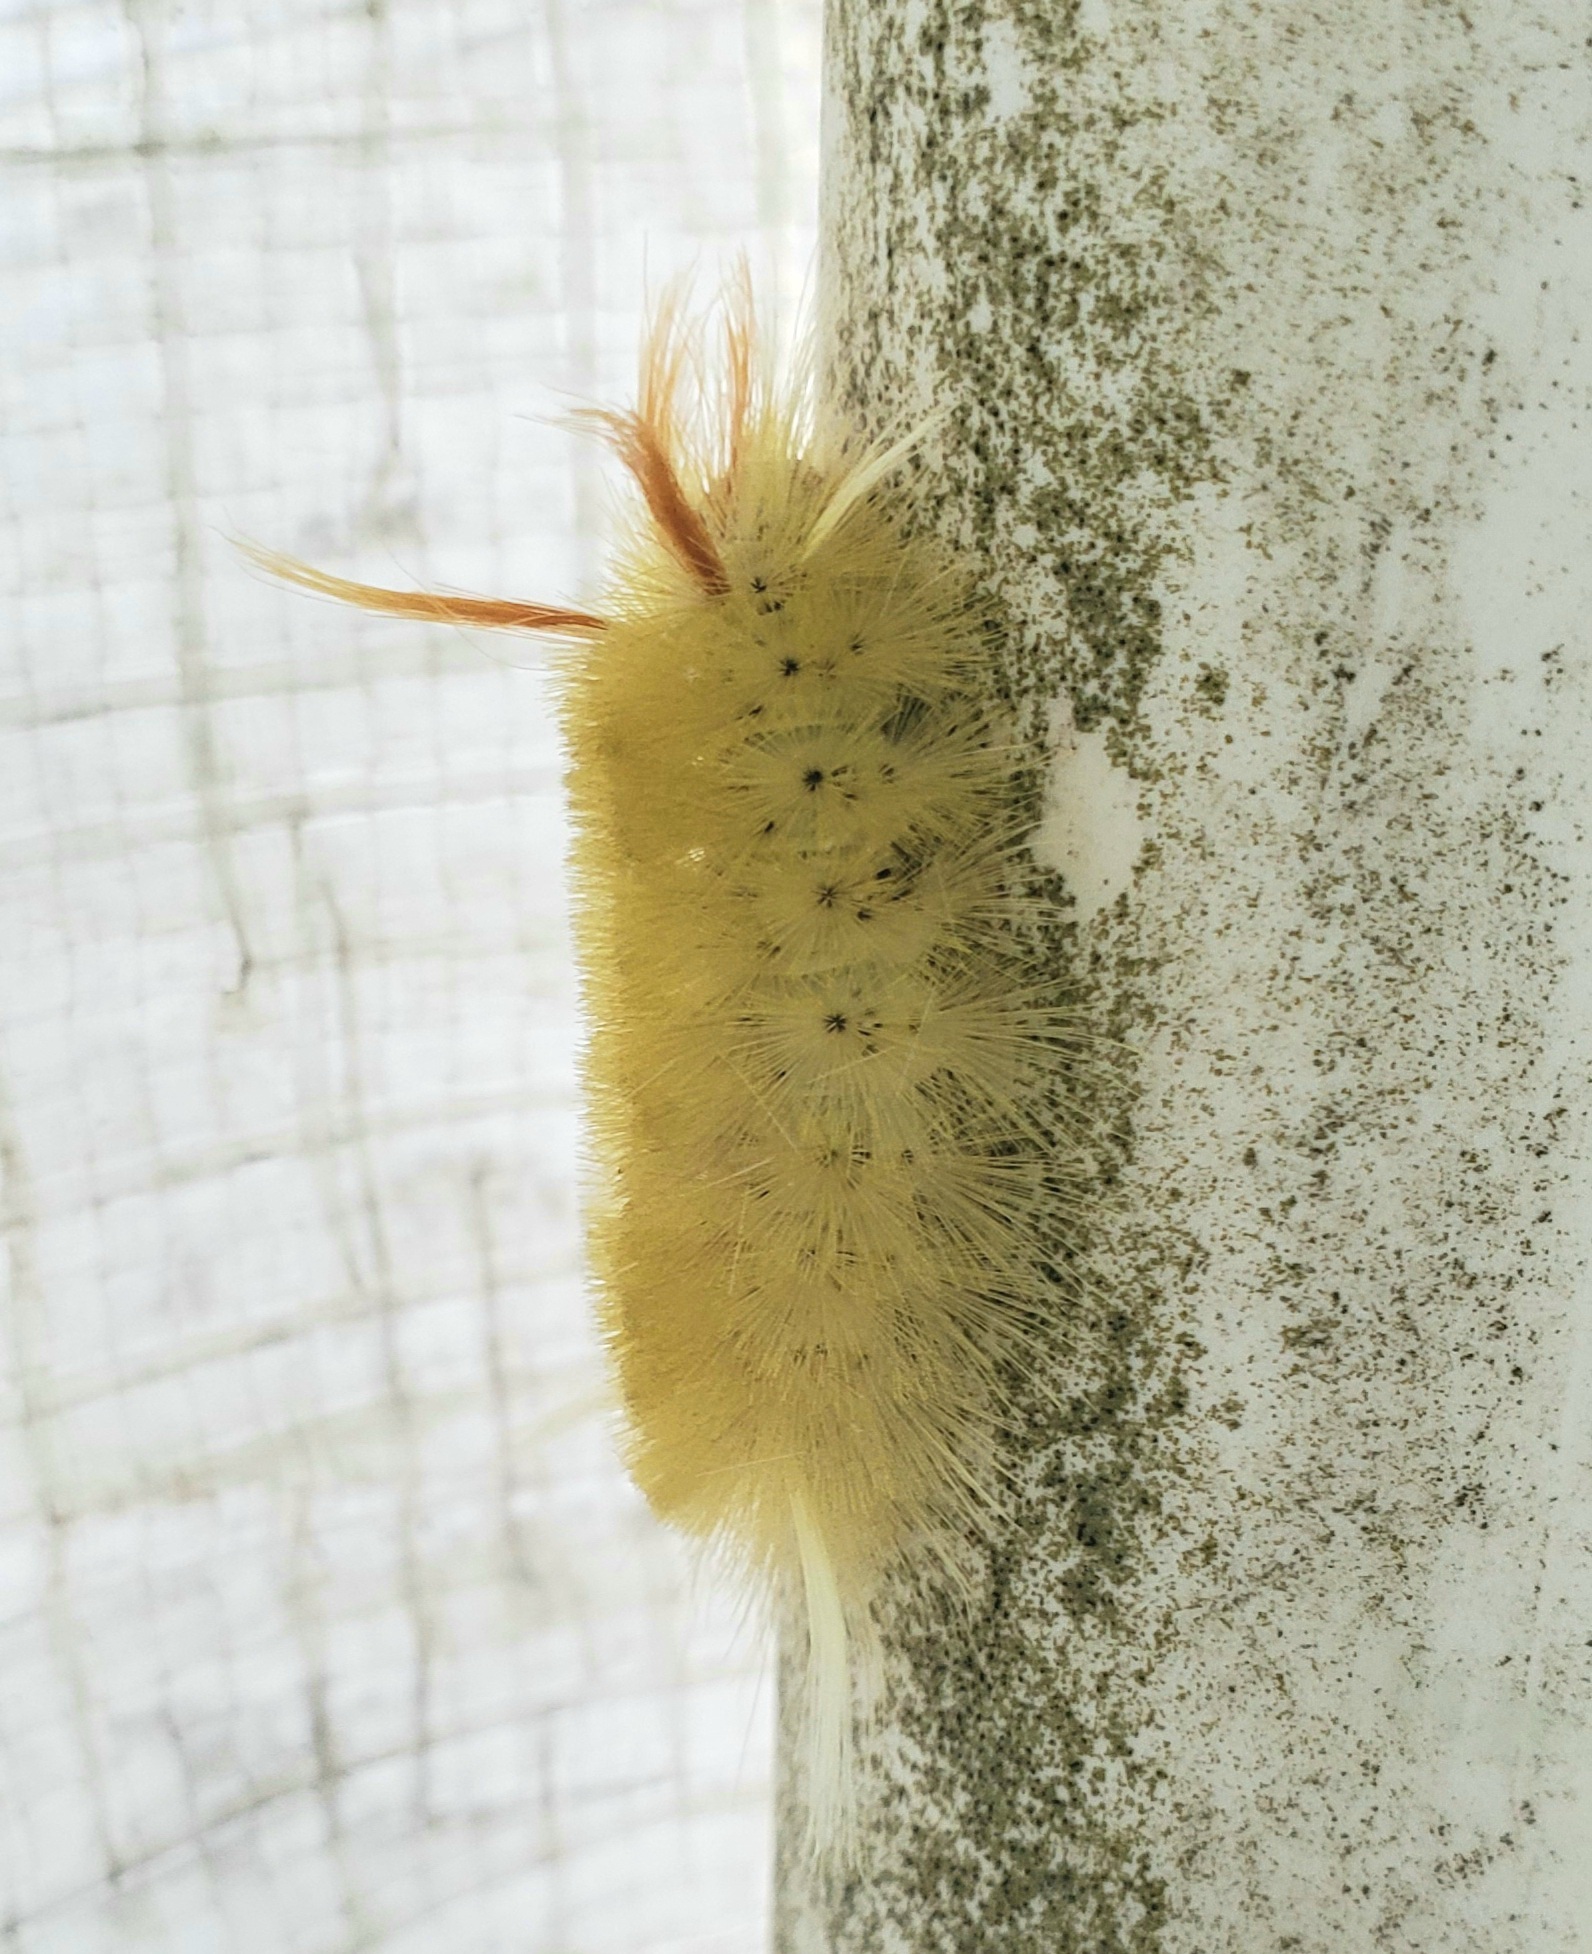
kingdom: Animalia
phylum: Arthropoda
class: Insecta
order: Lepidoptera
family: Erebidae
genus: Halysidota
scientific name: Halysidota harrisii
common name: Sycamore tussock moth
